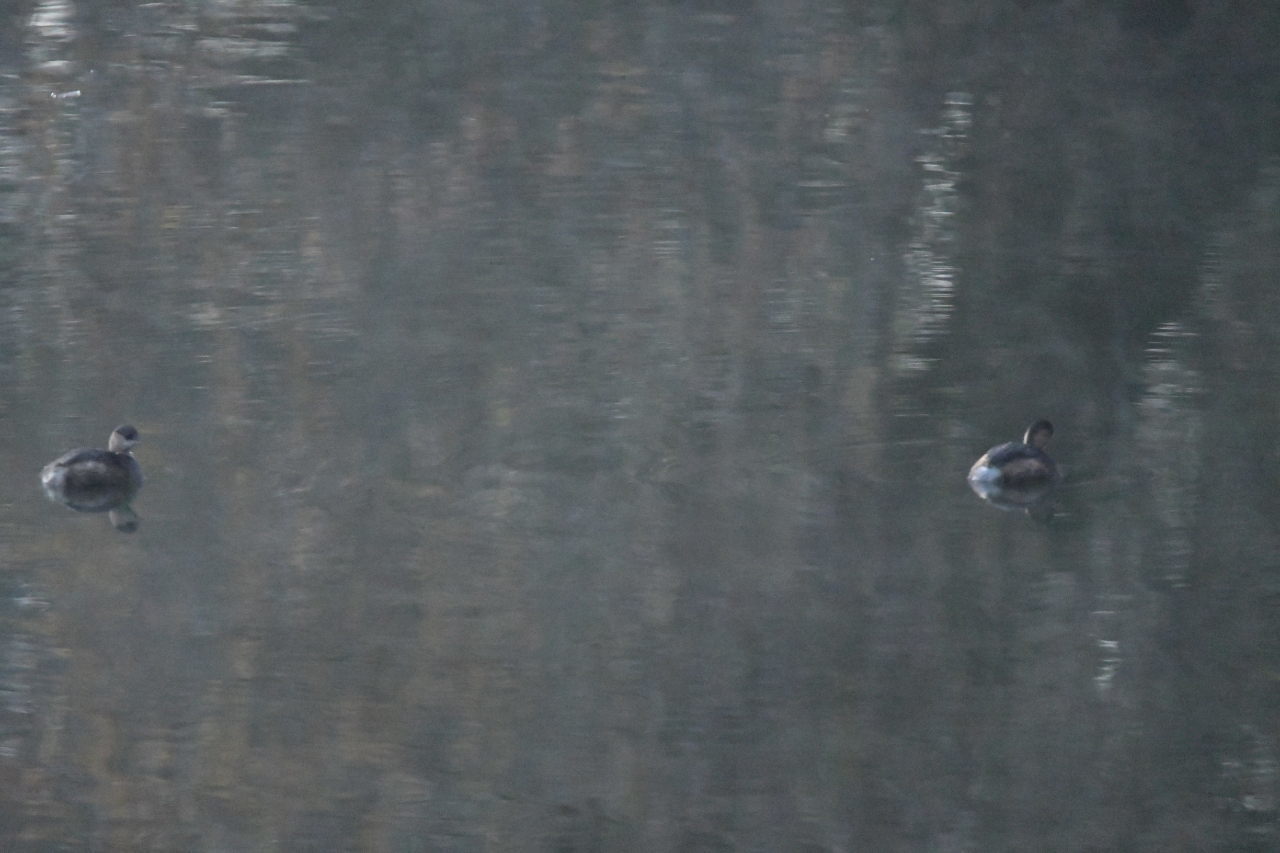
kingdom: Animalia
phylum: Chordata
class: Aves
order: Podicipediformes
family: Podicipedidae
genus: Tachybaptus
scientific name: Tachybaptus ruficollis
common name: Little grebe
